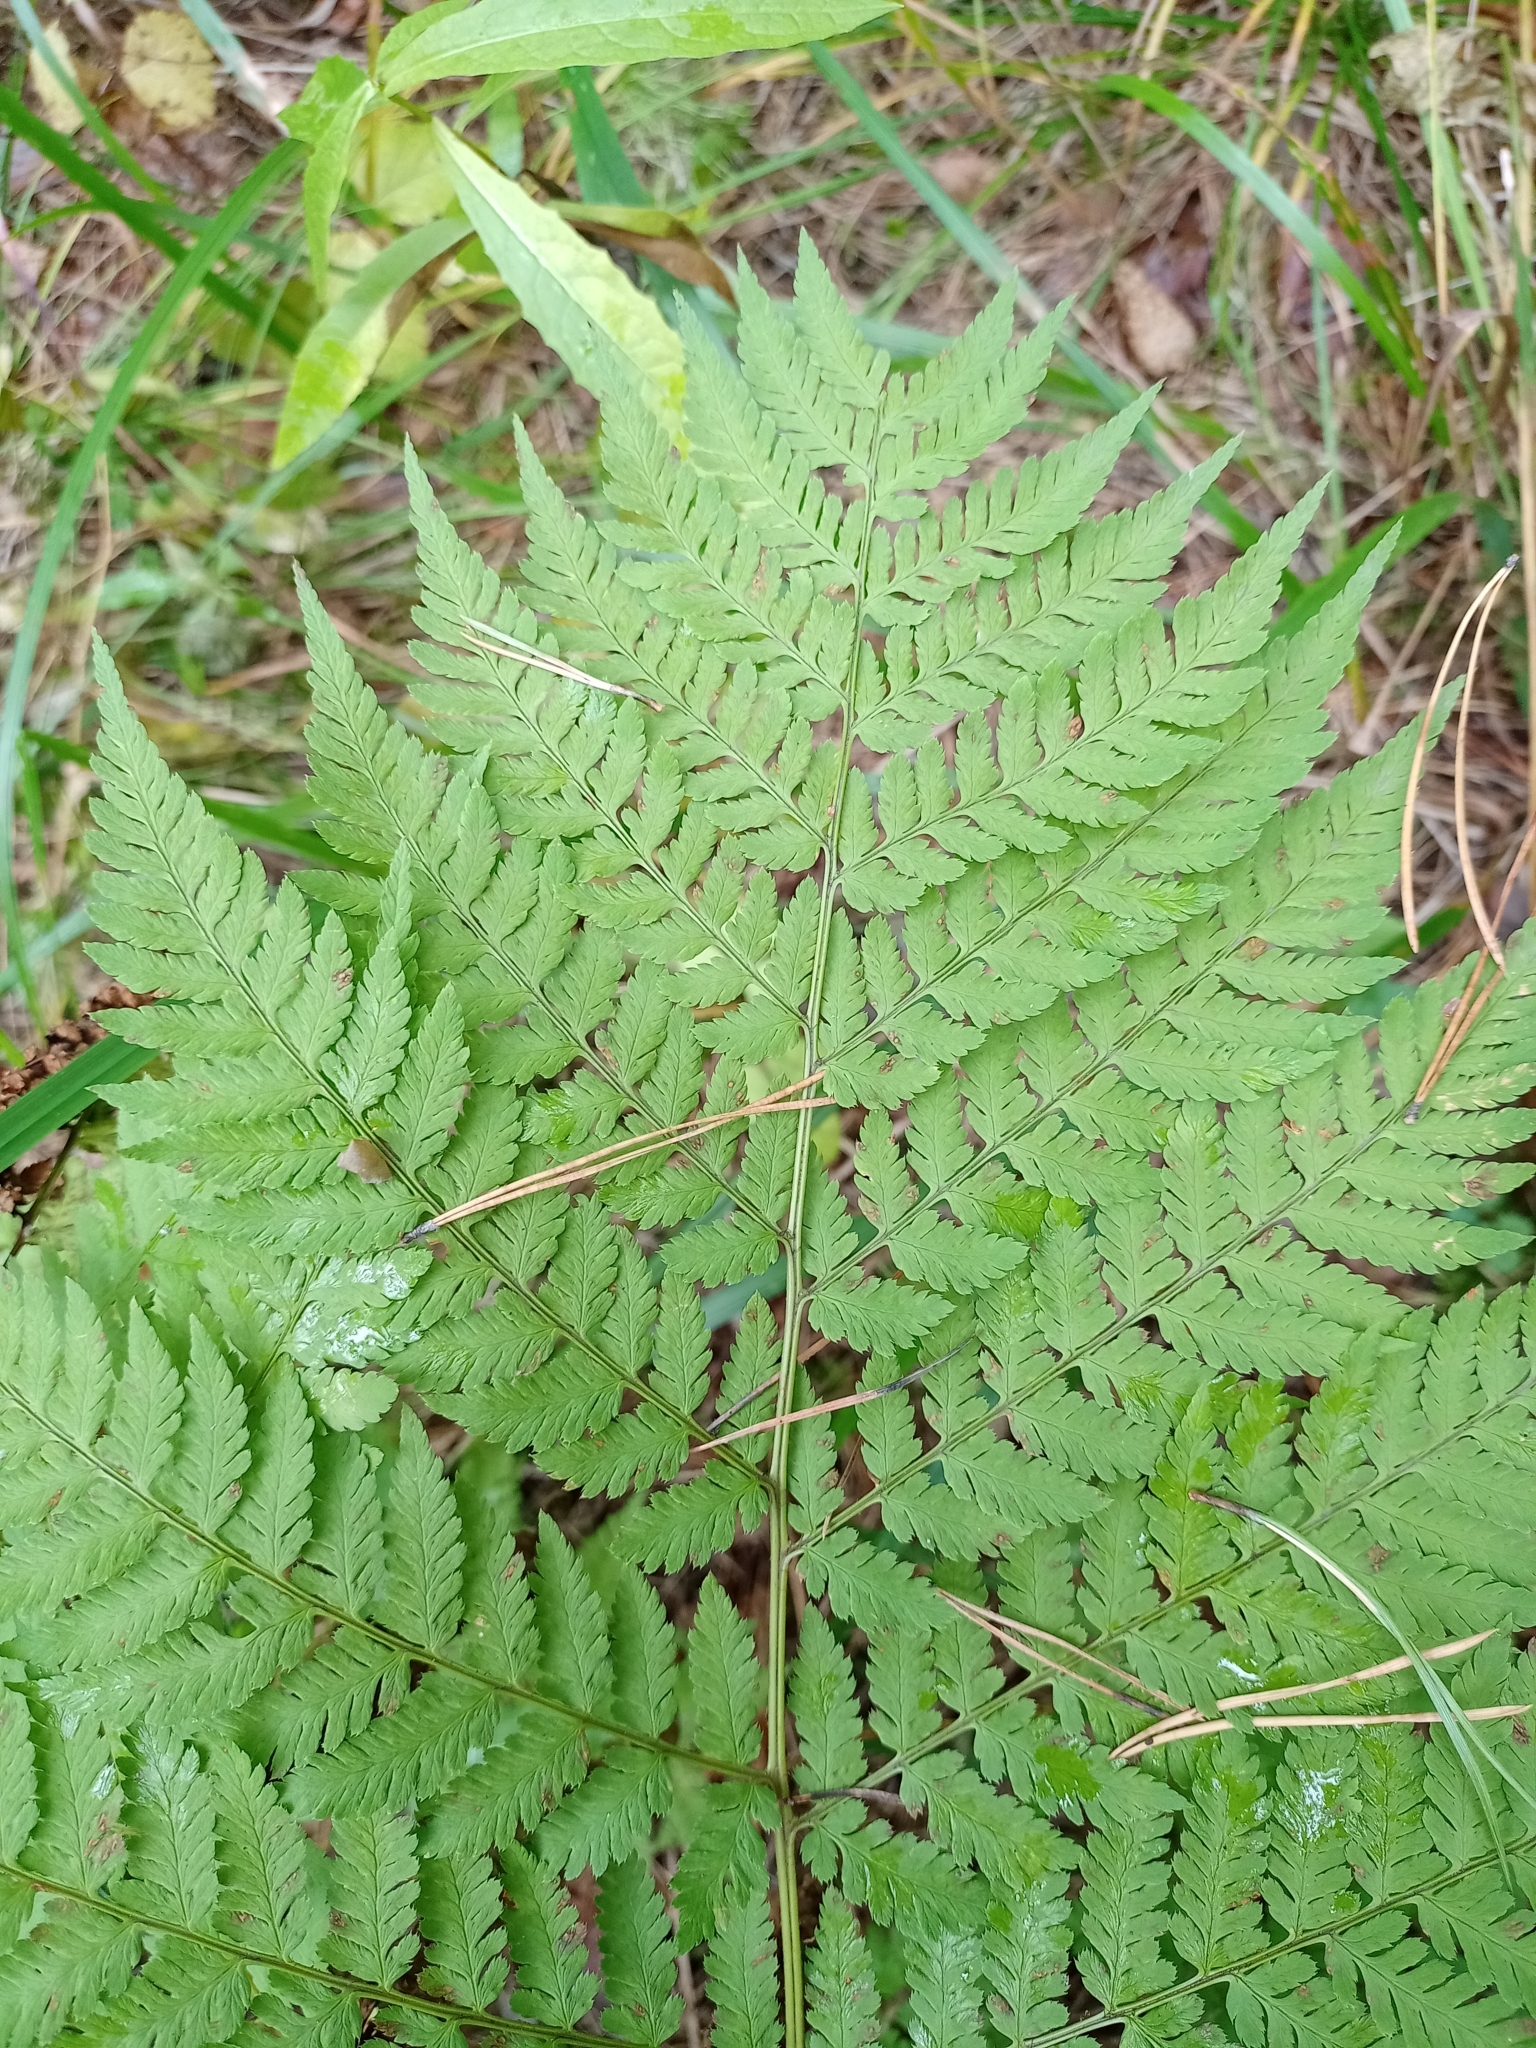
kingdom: Plantae
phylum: Tracheophyta
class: Polypodiopsida
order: Polypodiales
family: Dryopteridaceae
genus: Dryopteris
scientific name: Dryopteris expansa
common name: Northern buckler fern
